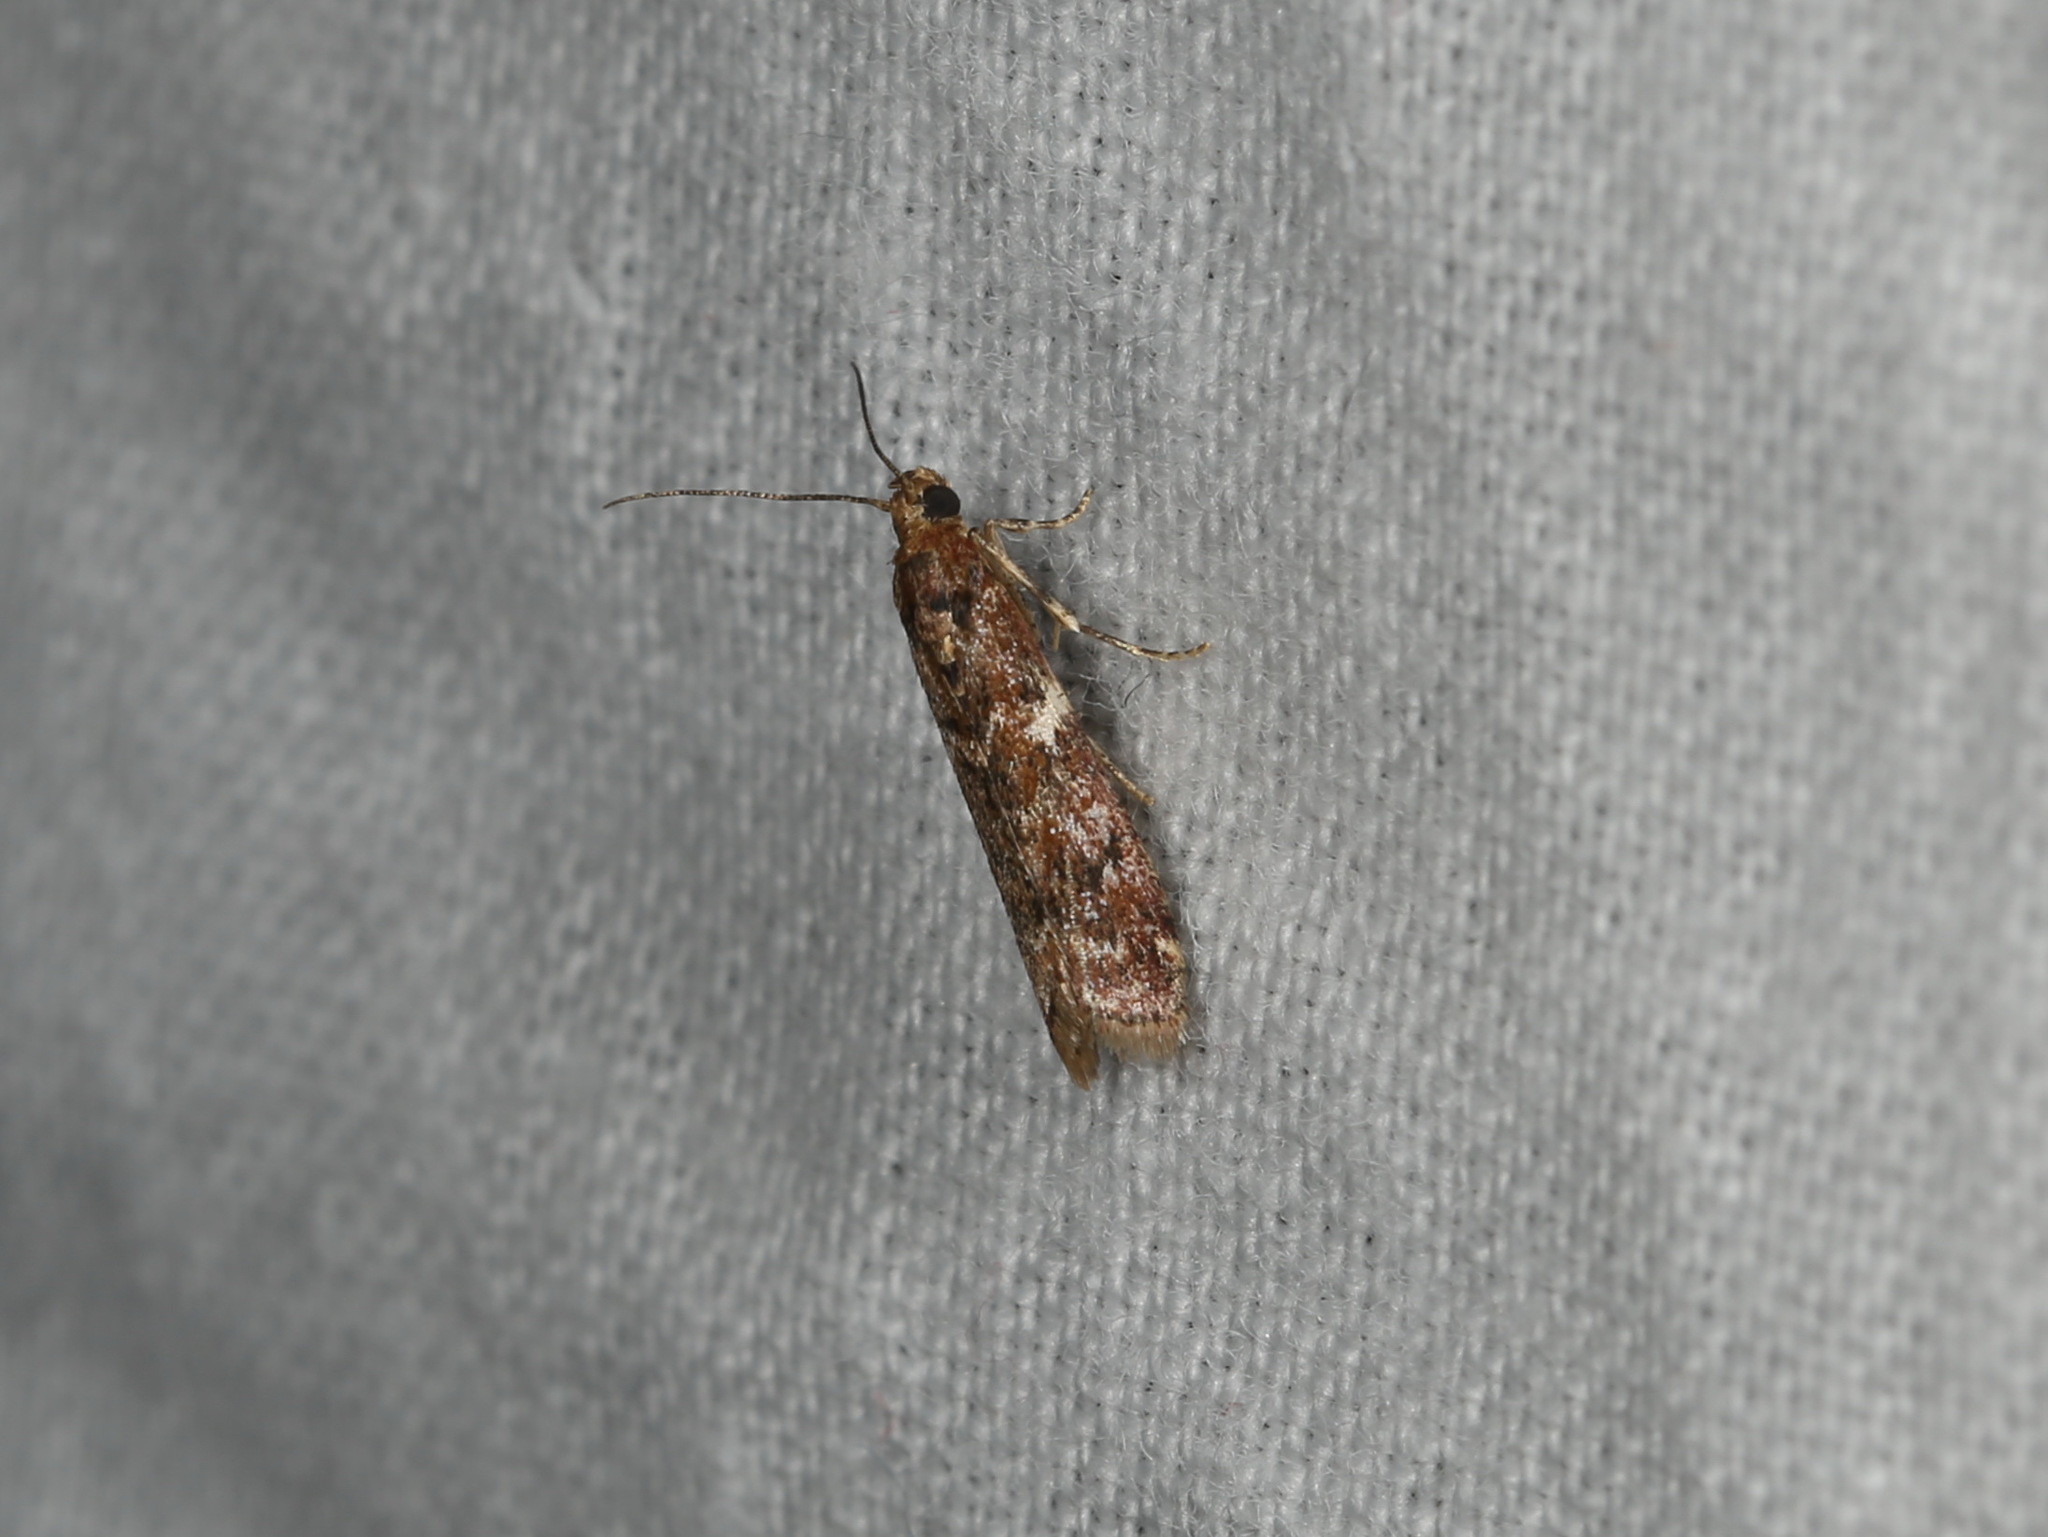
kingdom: Animalia
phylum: Arthropoda
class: Insecta
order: Lepidoptera
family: Pyralidae
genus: Ephestiopsis
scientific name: Ephestiopsis oenobarella
